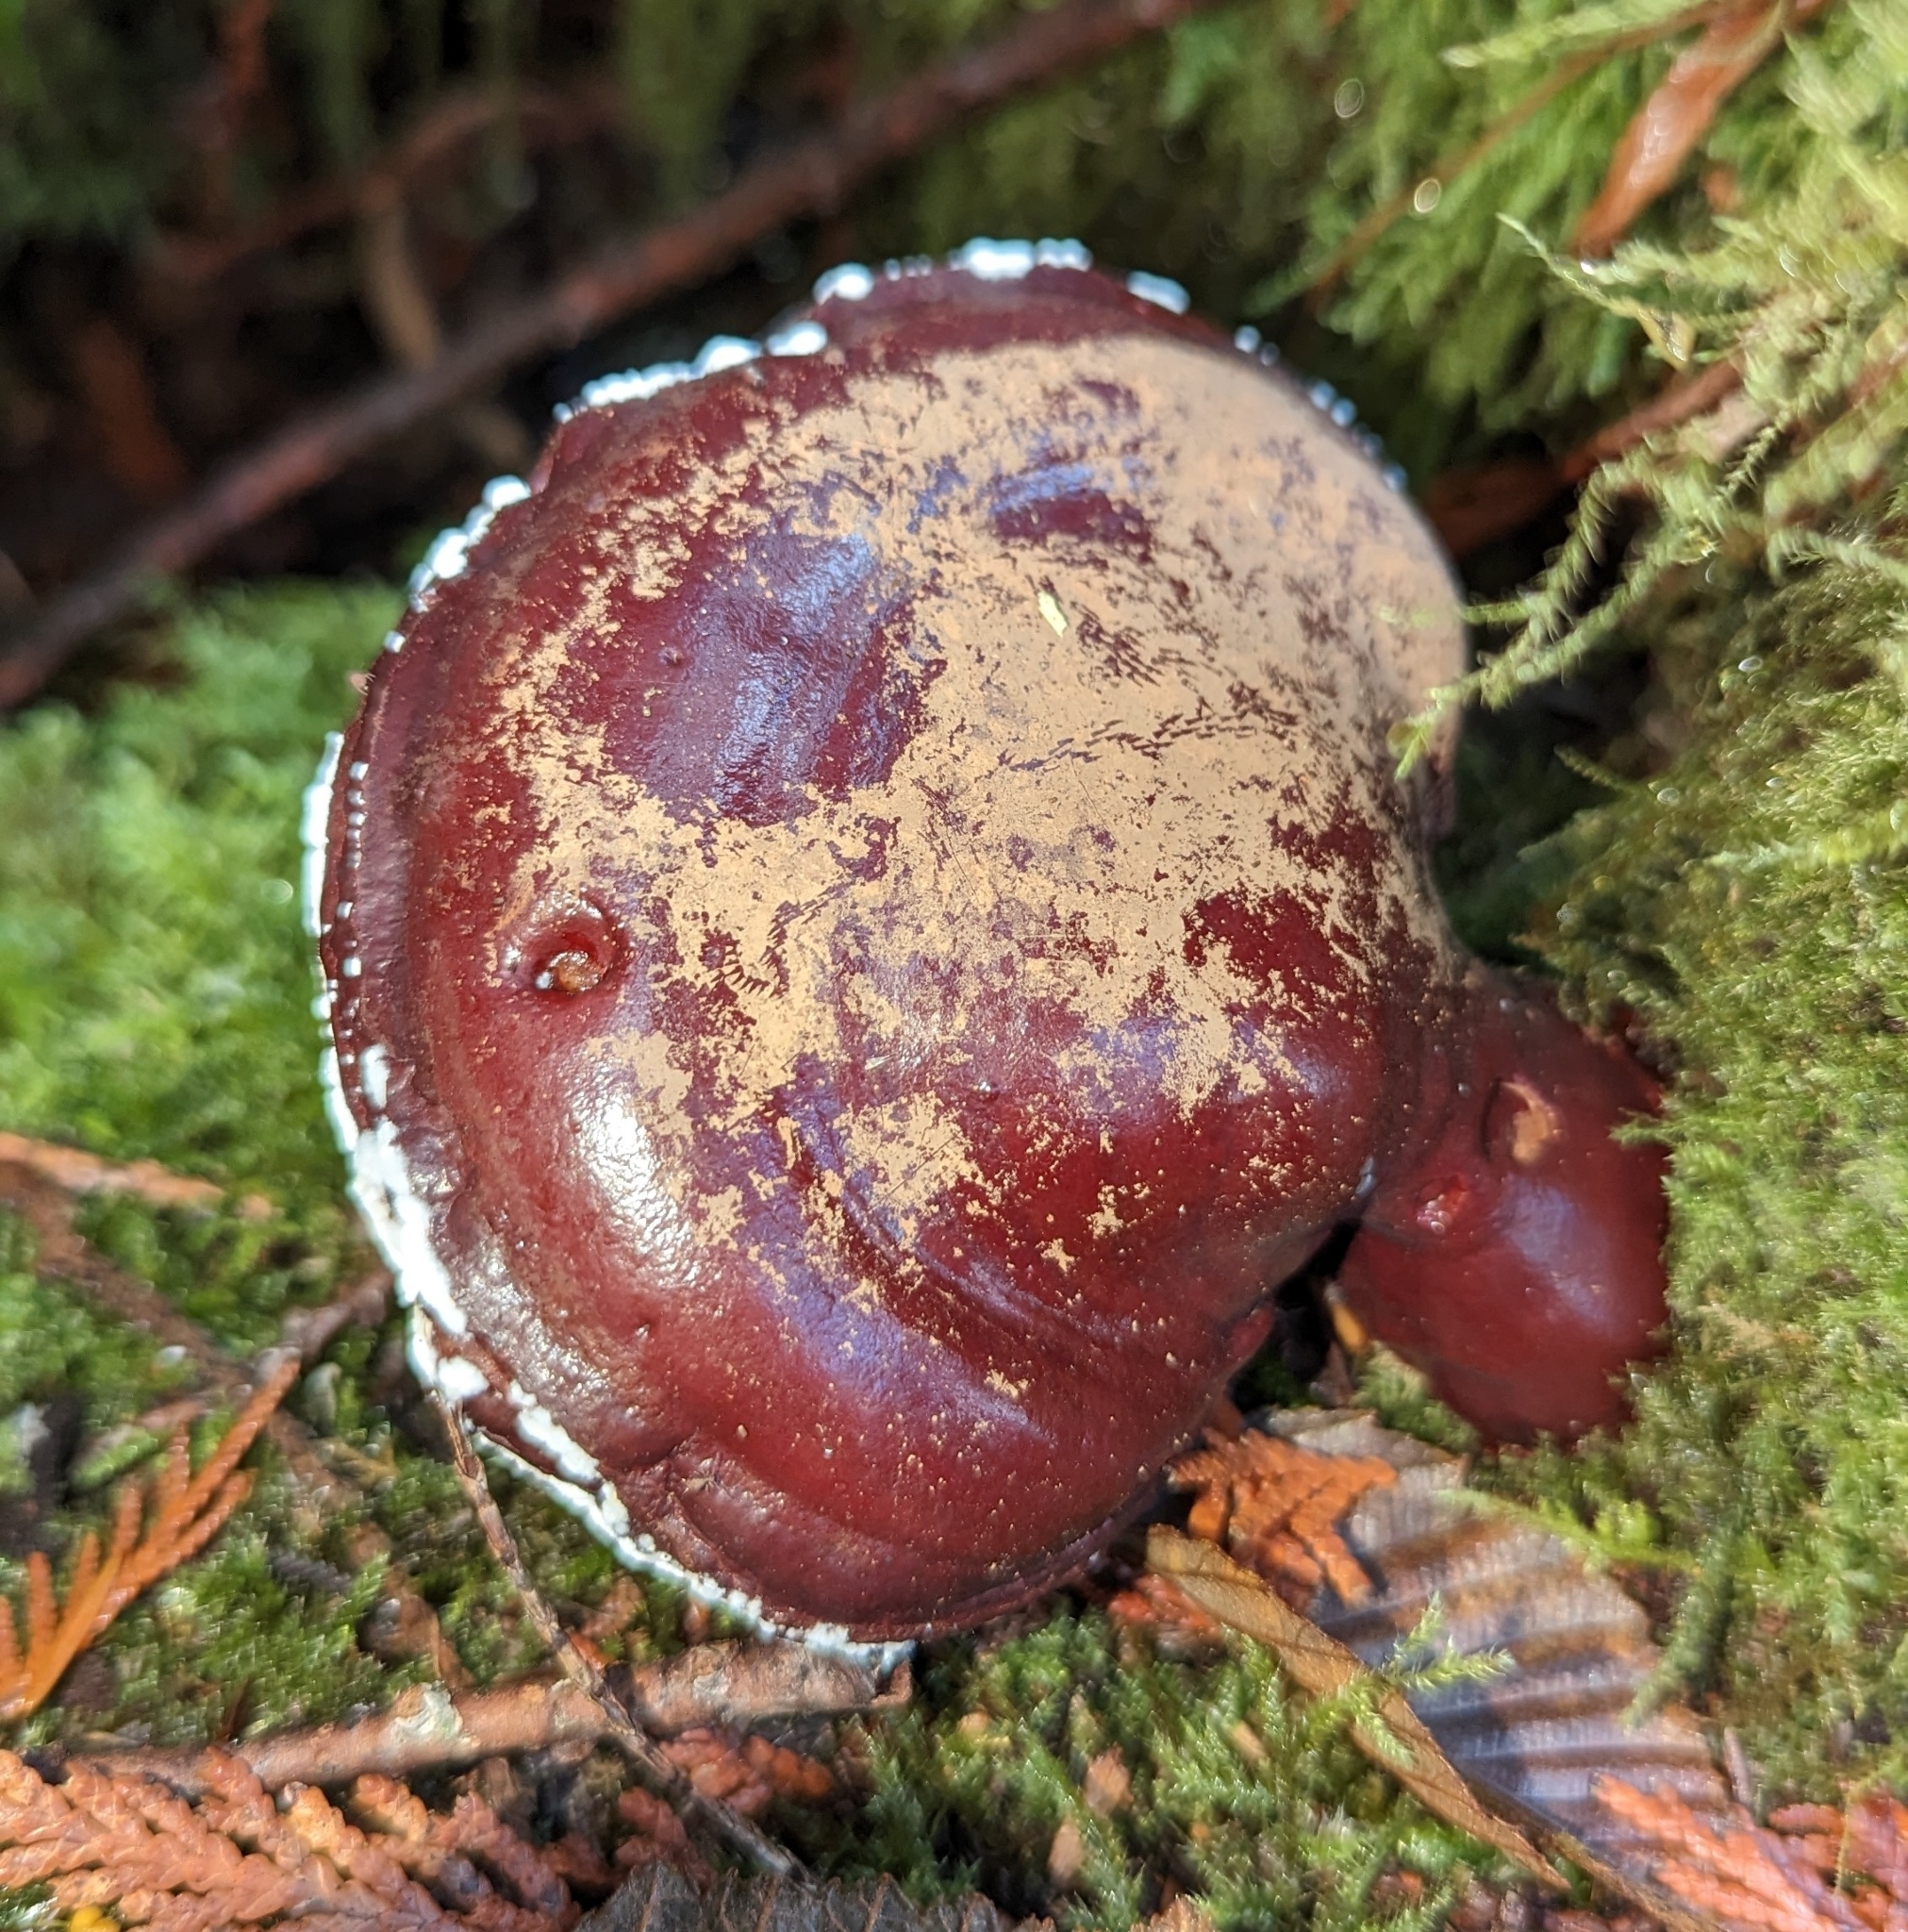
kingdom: Fungi
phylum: Basidiomycota
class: Agaricomycetes
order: Polyporales
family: Polyporaceae
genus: Ganoderma
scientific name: Ganoderma oregonense
